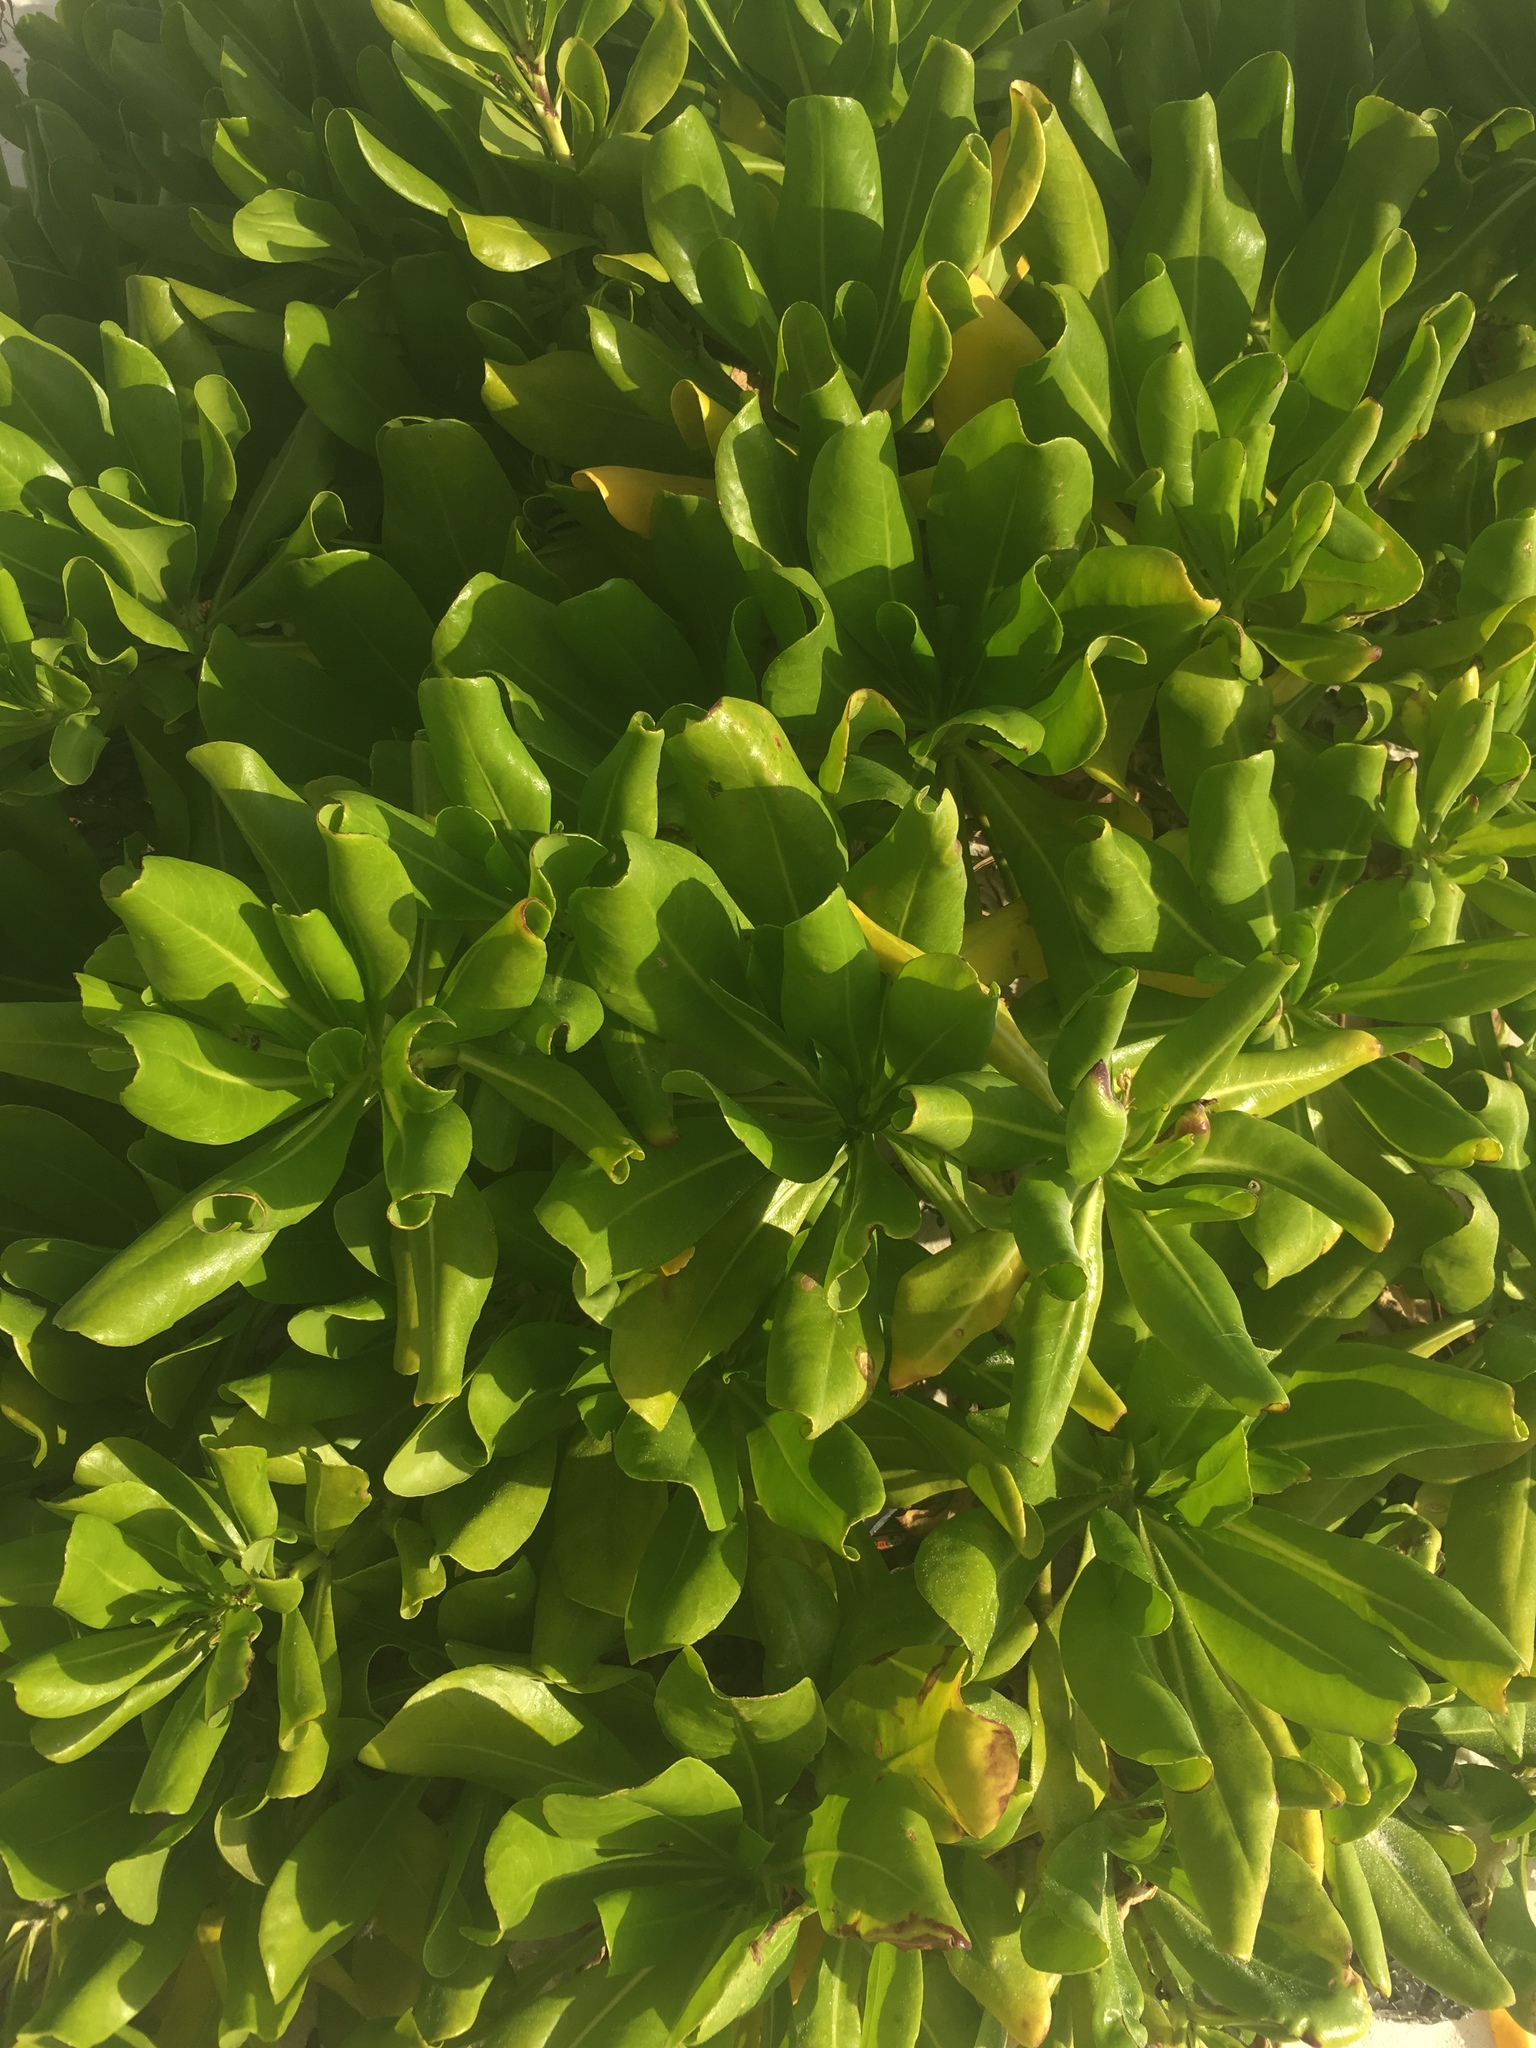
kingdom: Plantae
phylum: Tracheophyta
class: Magnoliopsida
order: Asterales
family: Goodeniaceae
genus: Scaevola
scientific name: Scaevola taccada
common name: Sea lettucetree
